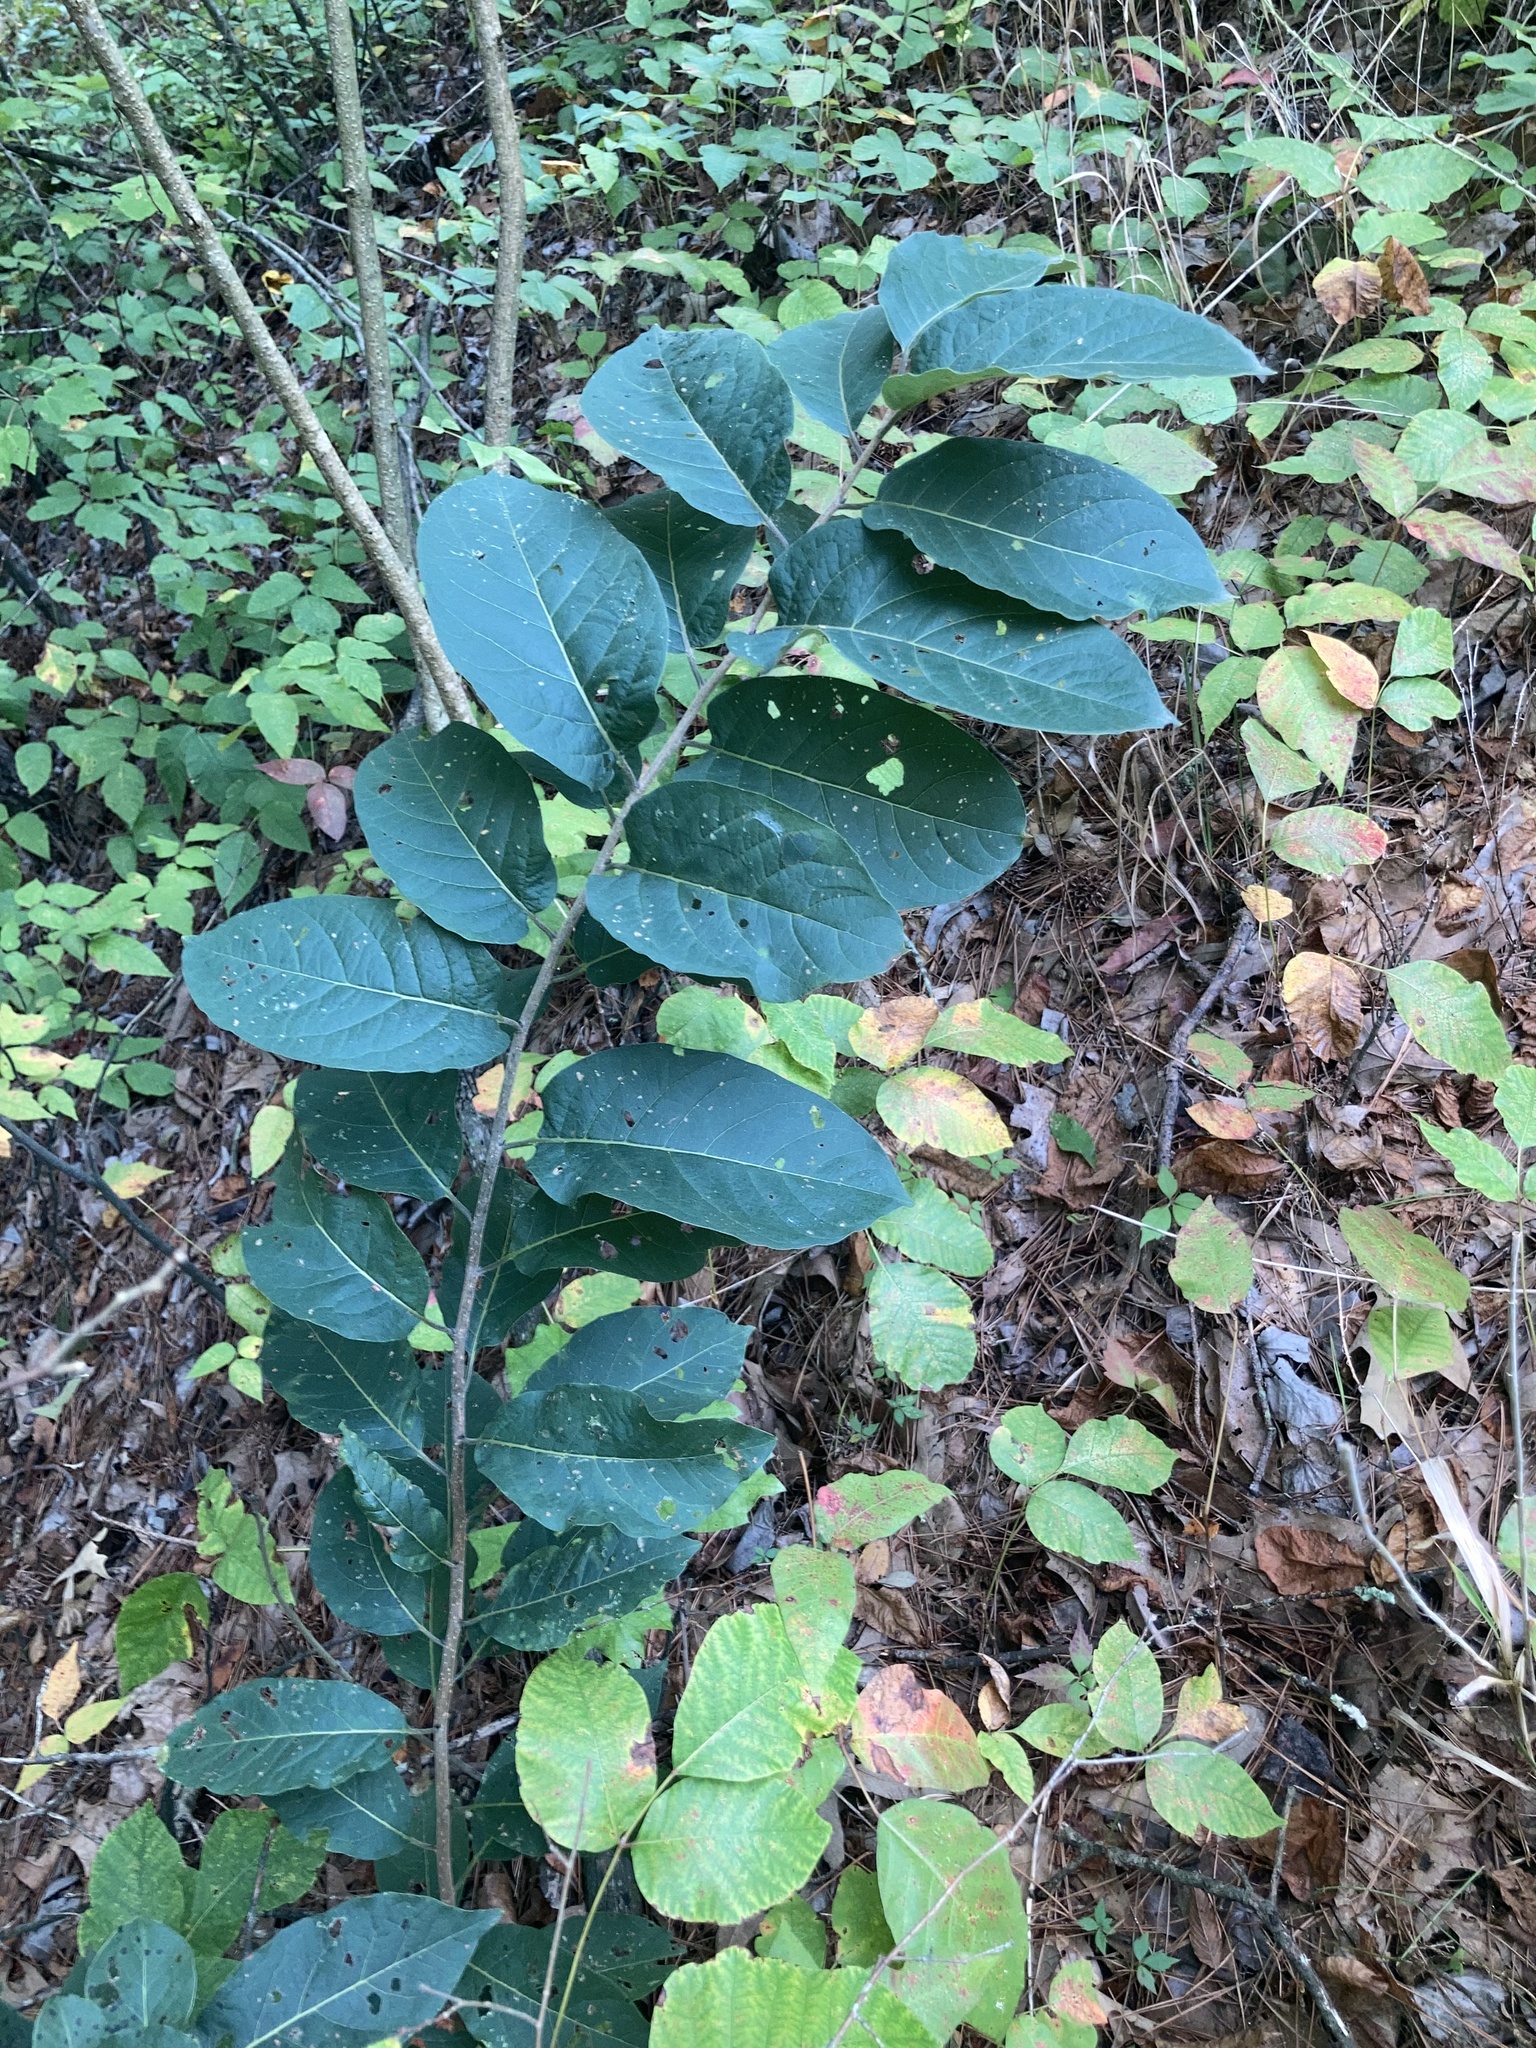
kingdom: Plantae
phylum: Tracheophyta
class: Magnoliopsida
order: Ericales
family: Ebenaceae
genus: Diospyros
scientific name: Diospyros virginiana
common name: Persimmon
